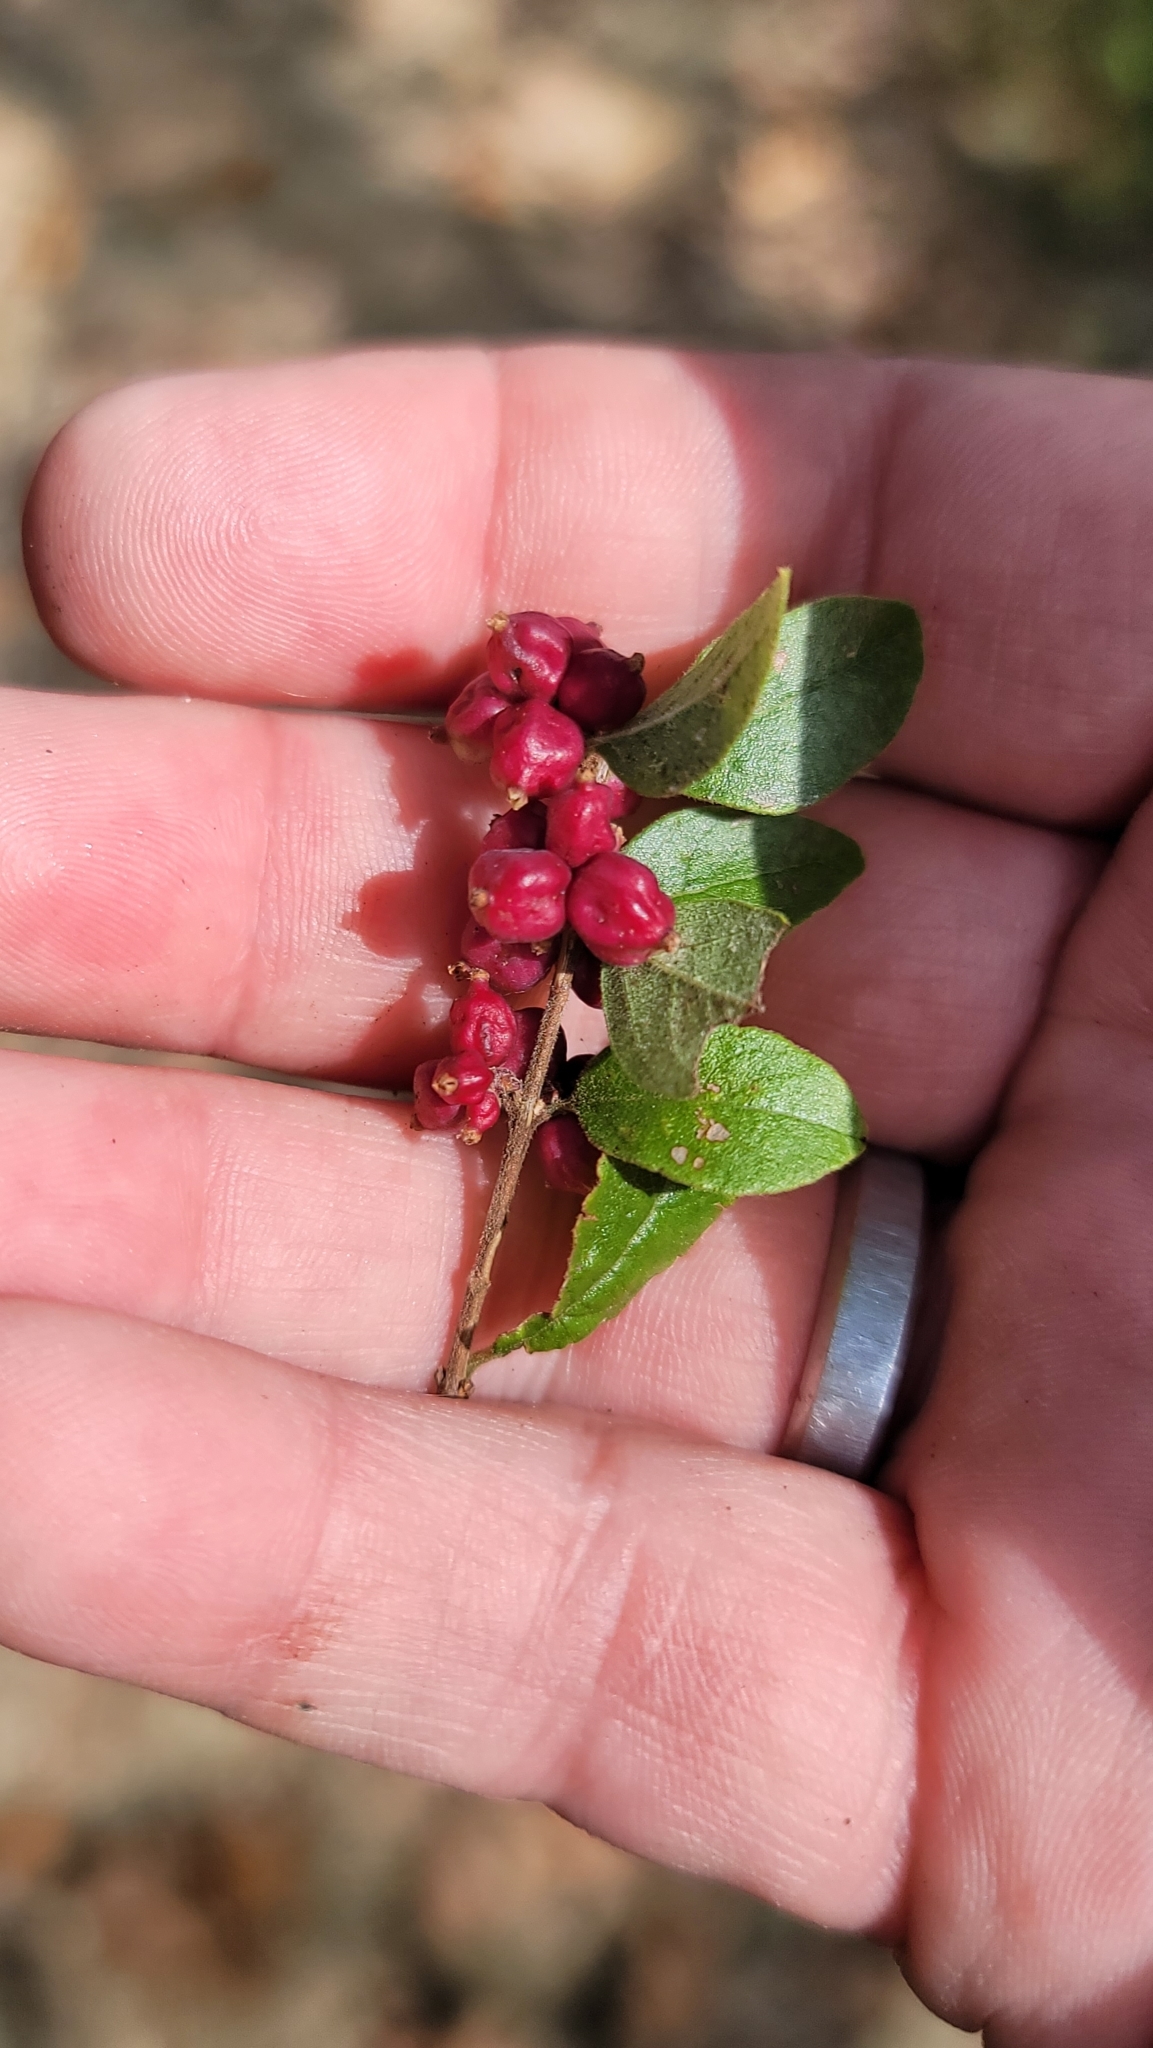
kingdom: Plantae
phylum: Tracheophyta
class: Magnoliopsida
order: Dipsacales
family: Caprifoliaceae
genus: Symphoricarpos
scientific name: Symphoricarpos orbiculatus
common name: Coralberry
